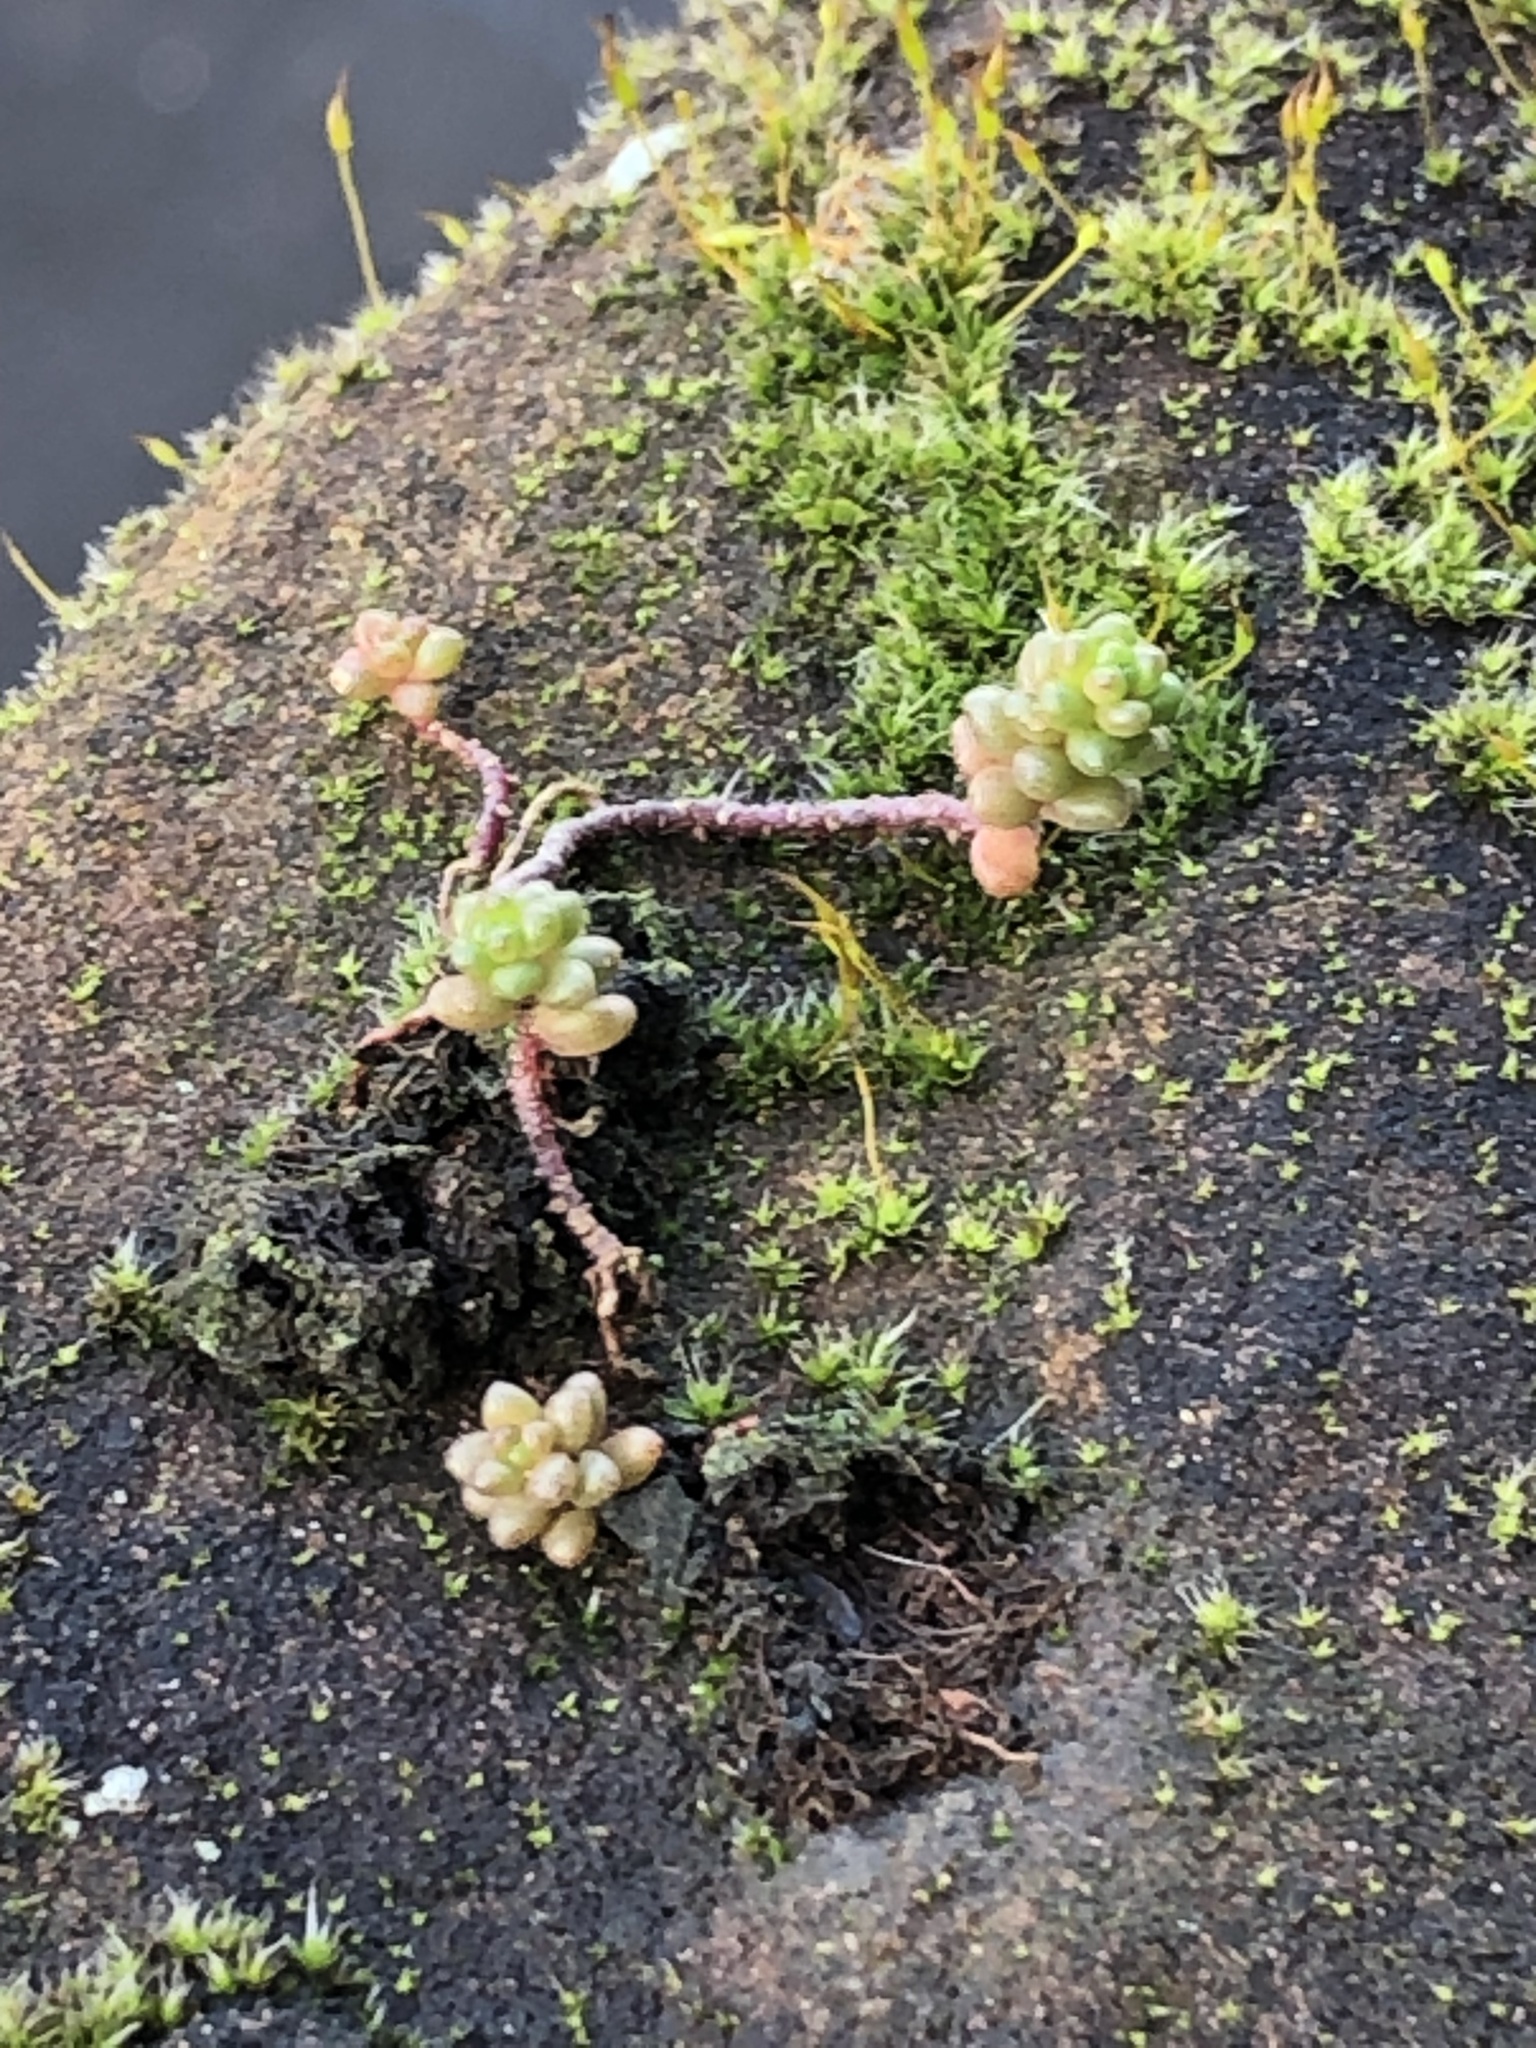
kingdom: Plantae
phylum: Tracheophyta
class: Magnoliopsida
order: Saxifragales
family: Crassulaceae
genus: Sedum
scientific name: Sedum album
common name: White stonecrop
